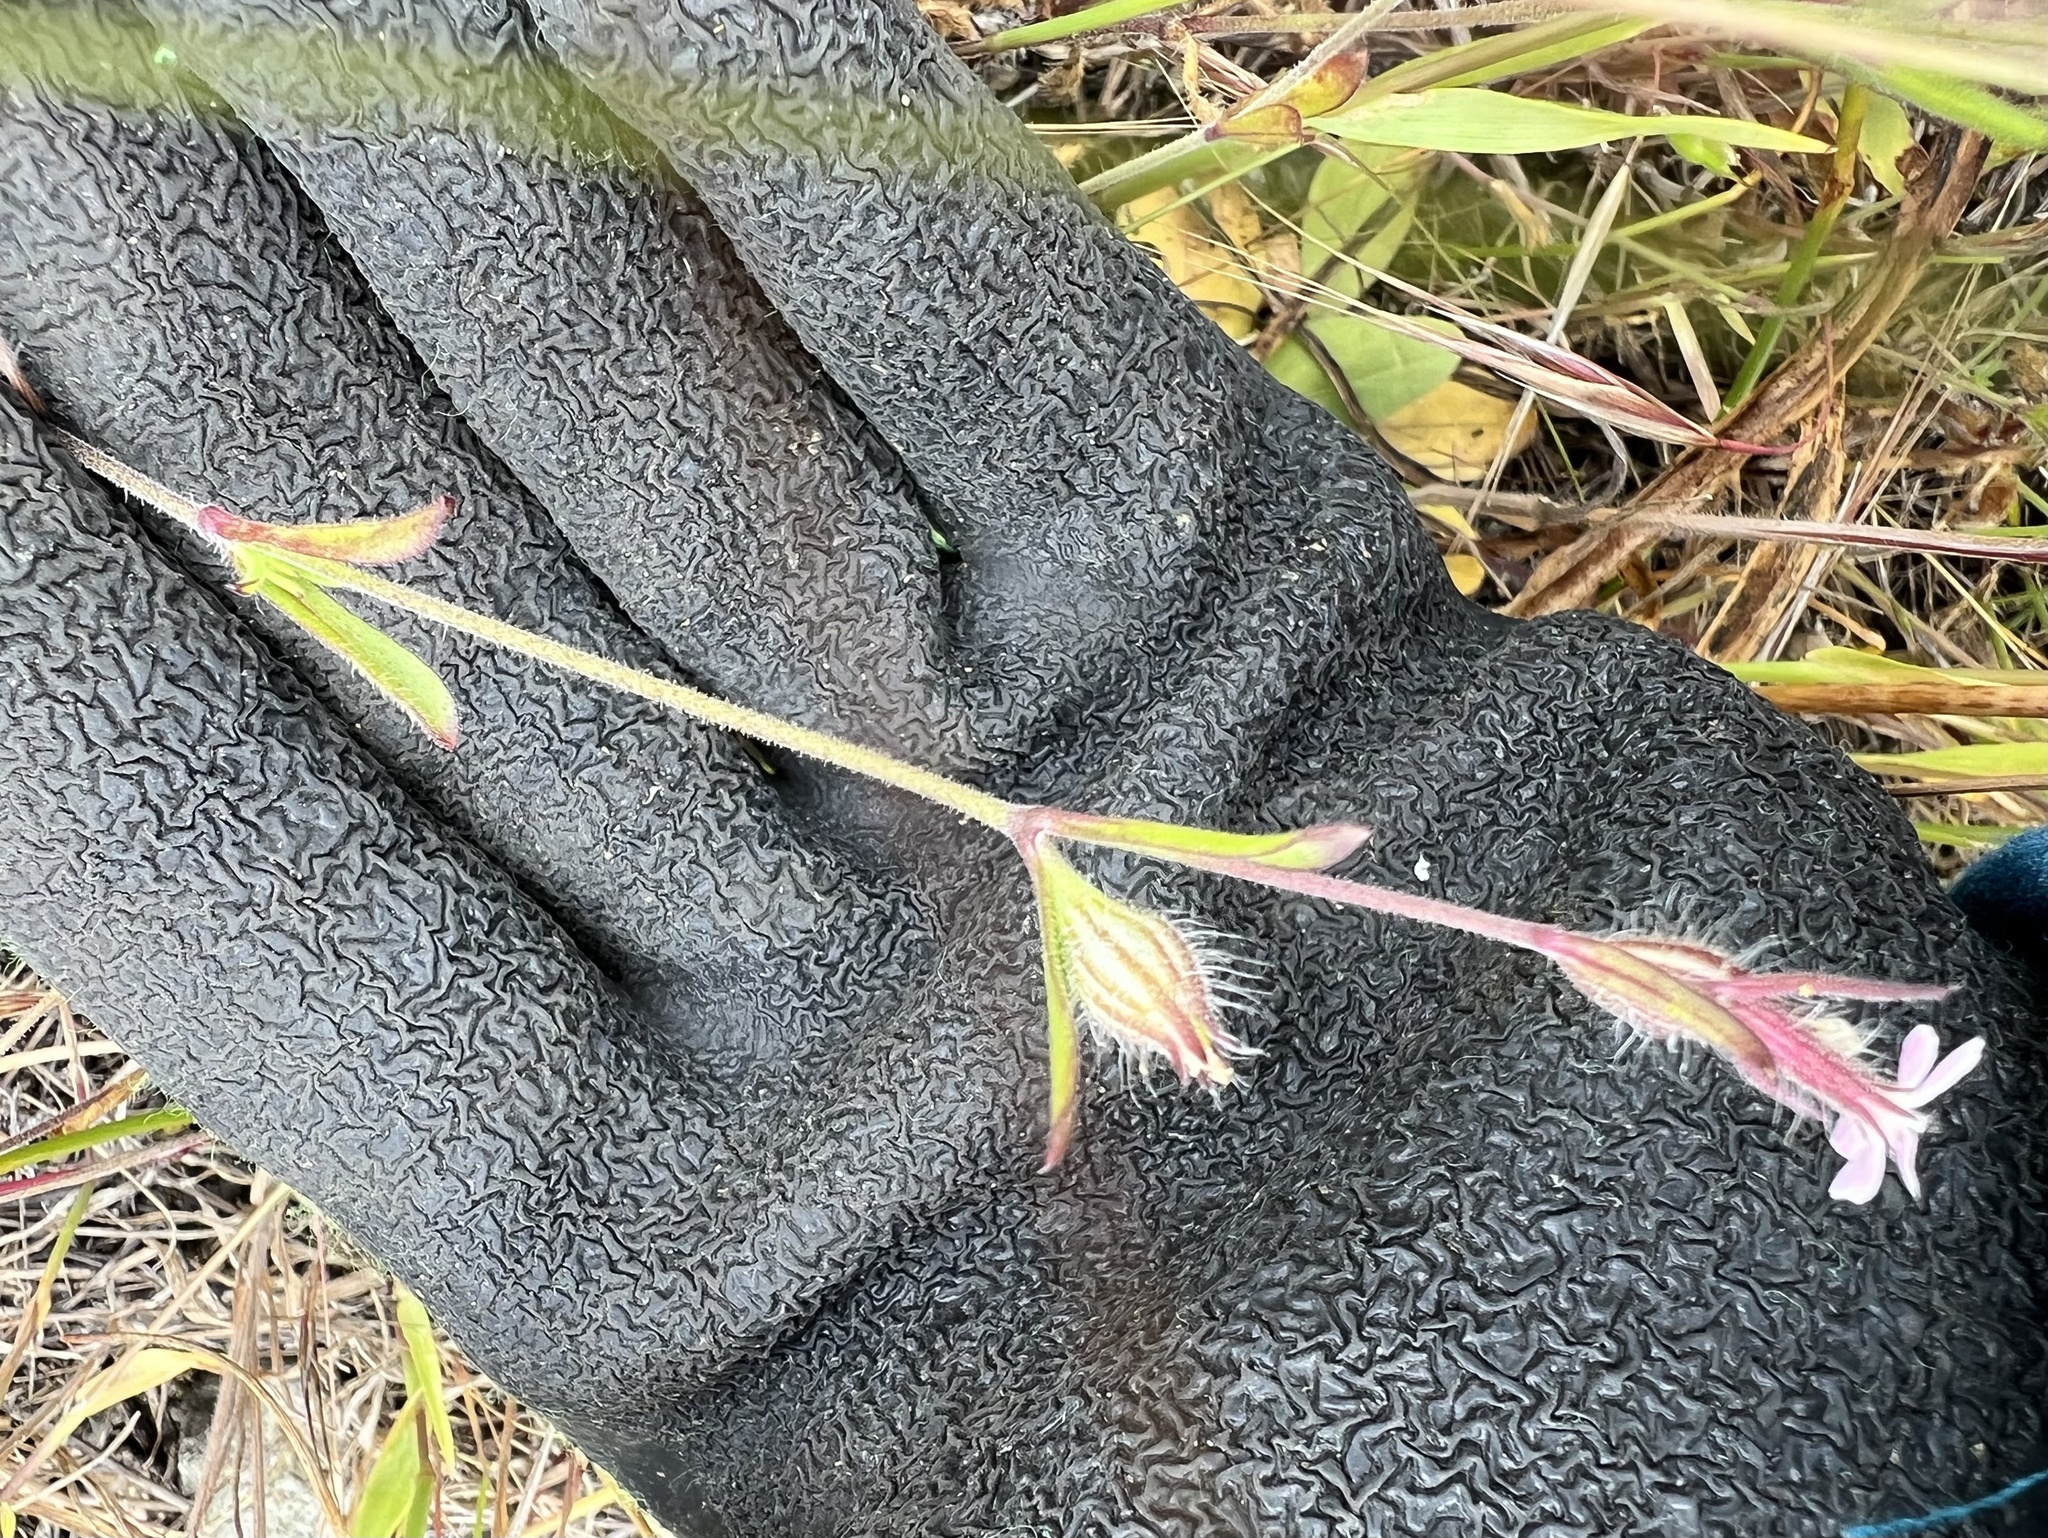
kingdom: Plantae
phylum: Tracheophyta
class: Magnoliopsida
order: Caryophyllales
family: Caryophyllaceae
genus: Silene
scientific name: Silene gallica
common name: Small-flowered catchfly
